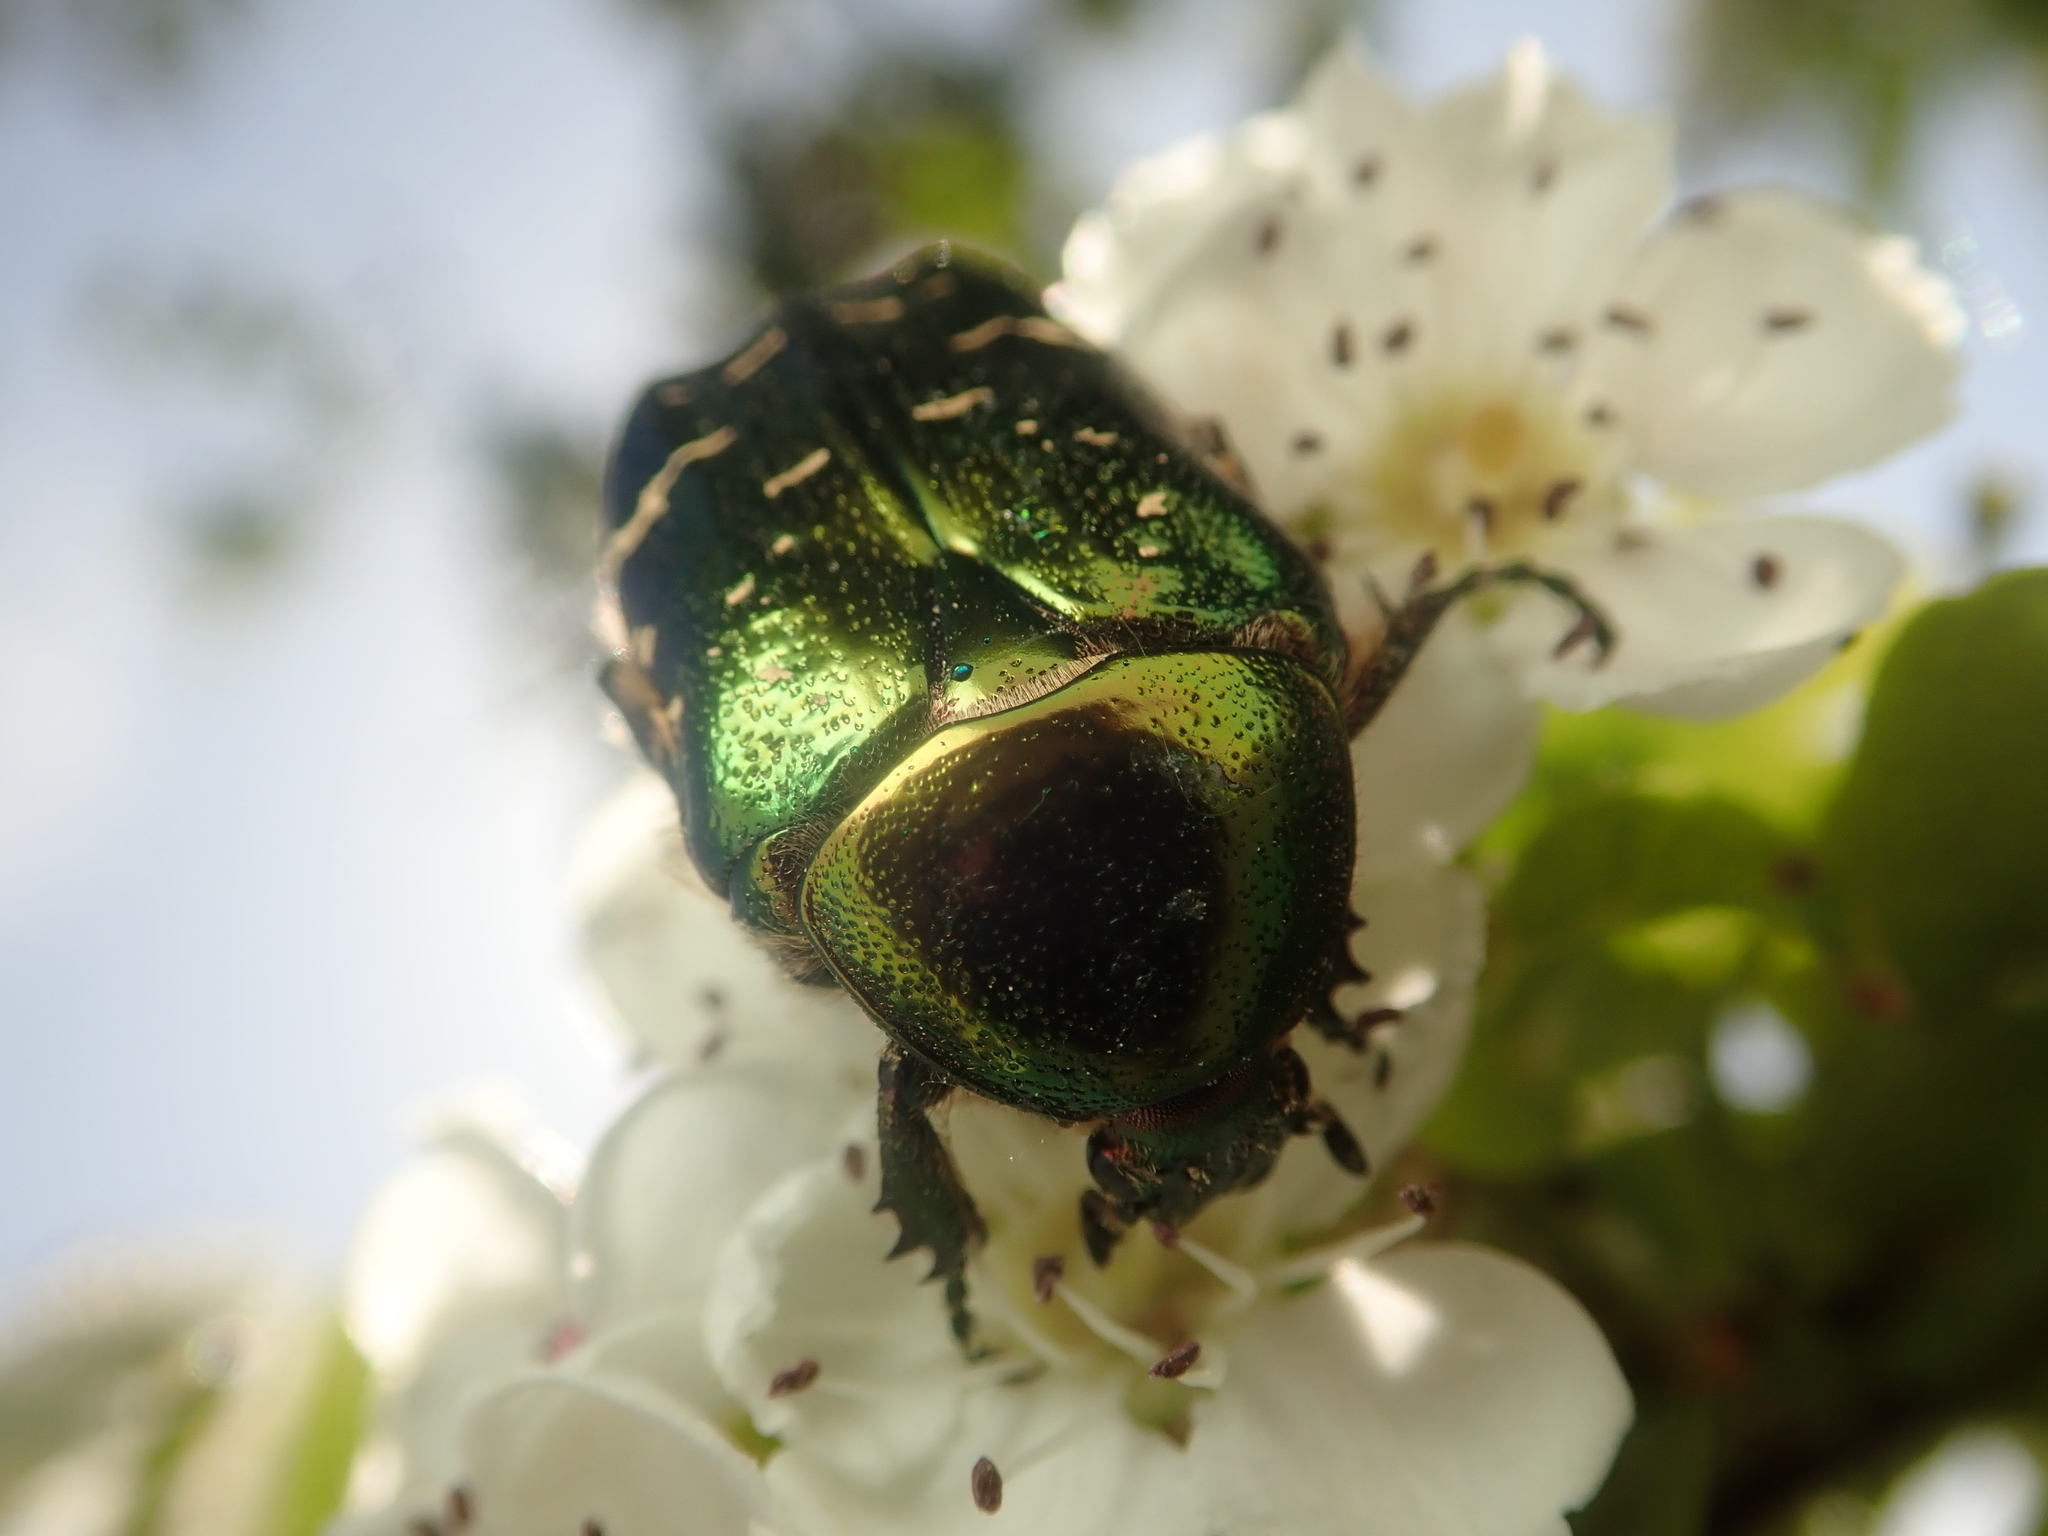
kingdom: Animalia
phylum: Arthropoda
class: Insecta
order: Coleoptera
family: Scarabaeidae
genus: Cetonia
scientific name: Cetonia aurata
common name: Rose chafer
